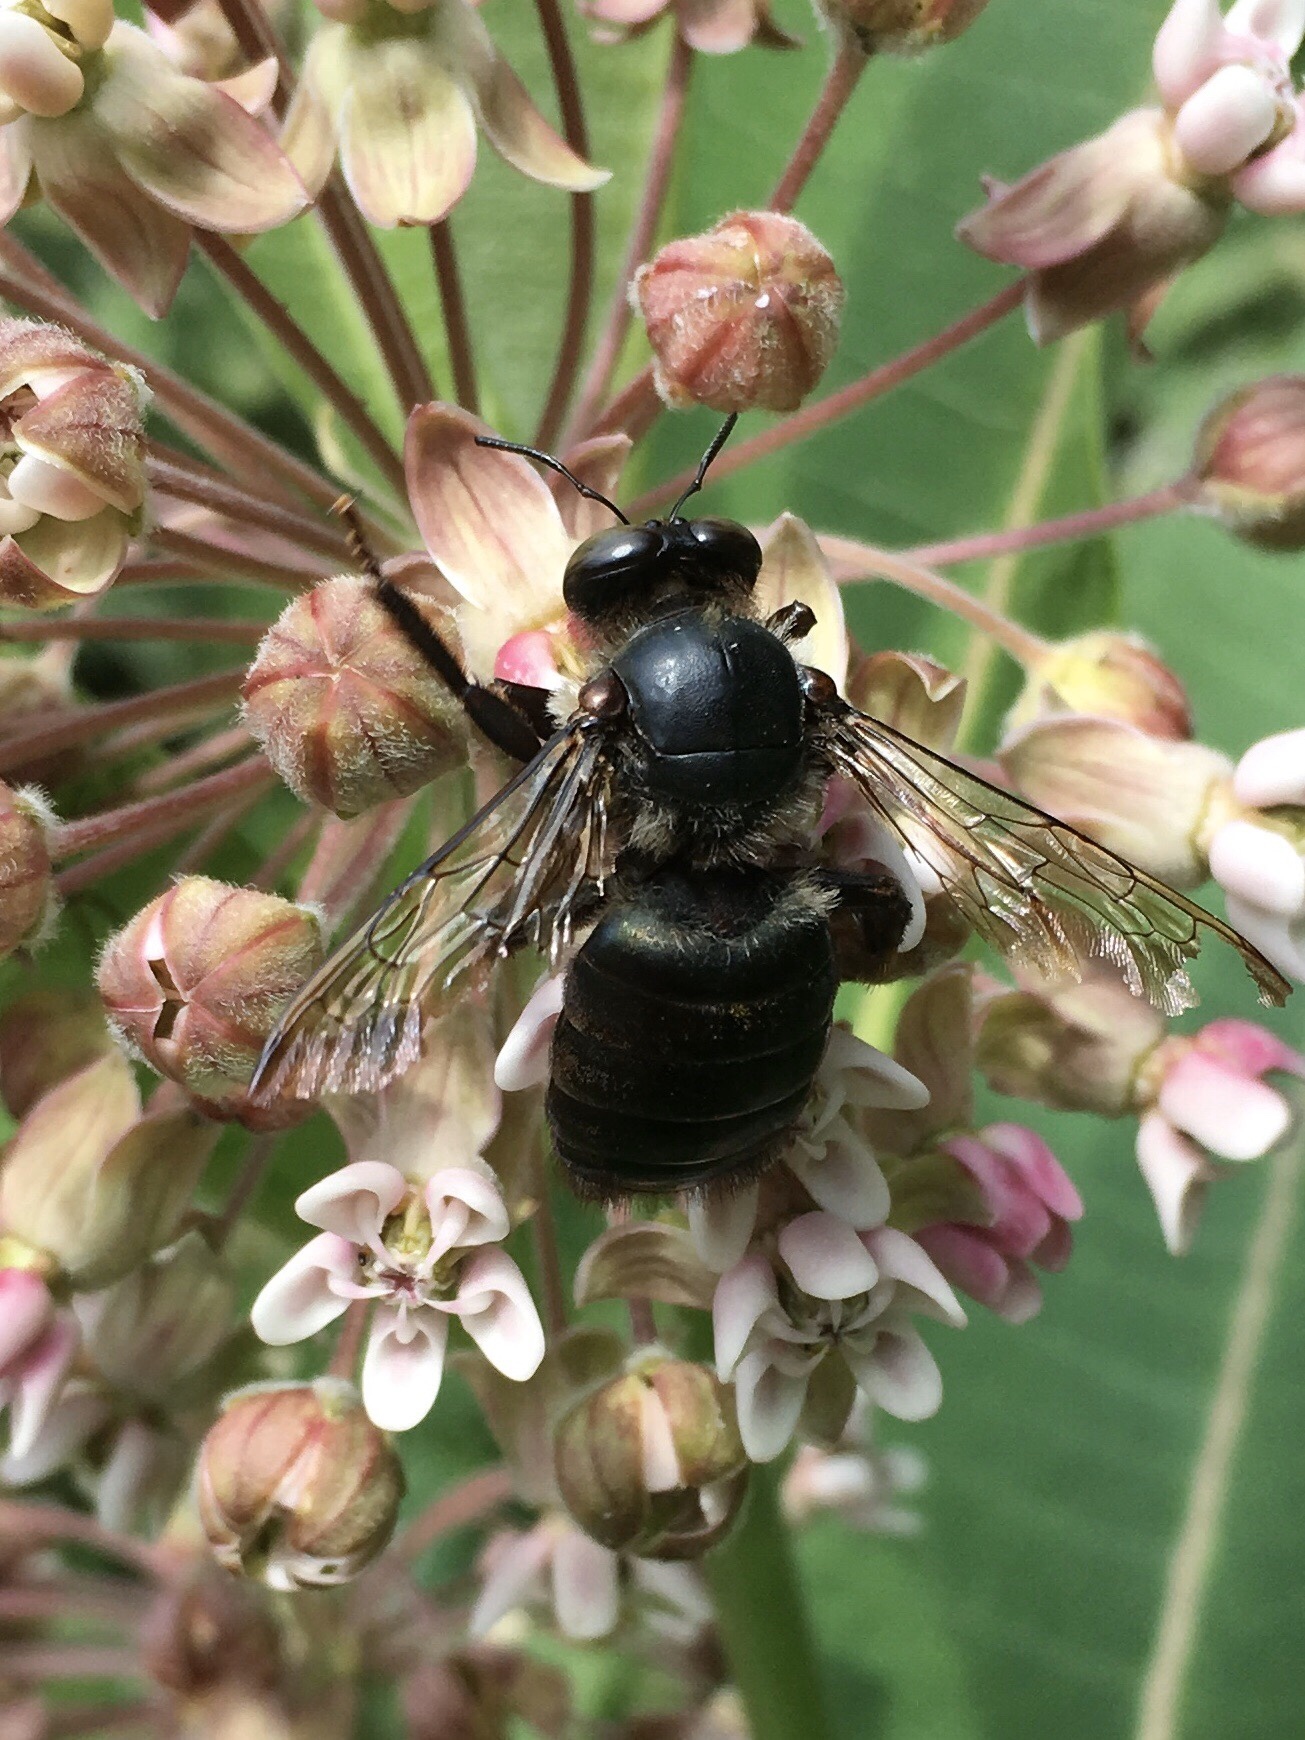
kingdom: Animalia
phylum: Arthropoda
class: Insecta
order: Hymenoptera
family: Apidae
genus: Xylocopa
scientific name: Xylocopa virginica
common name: Carpenter bee
